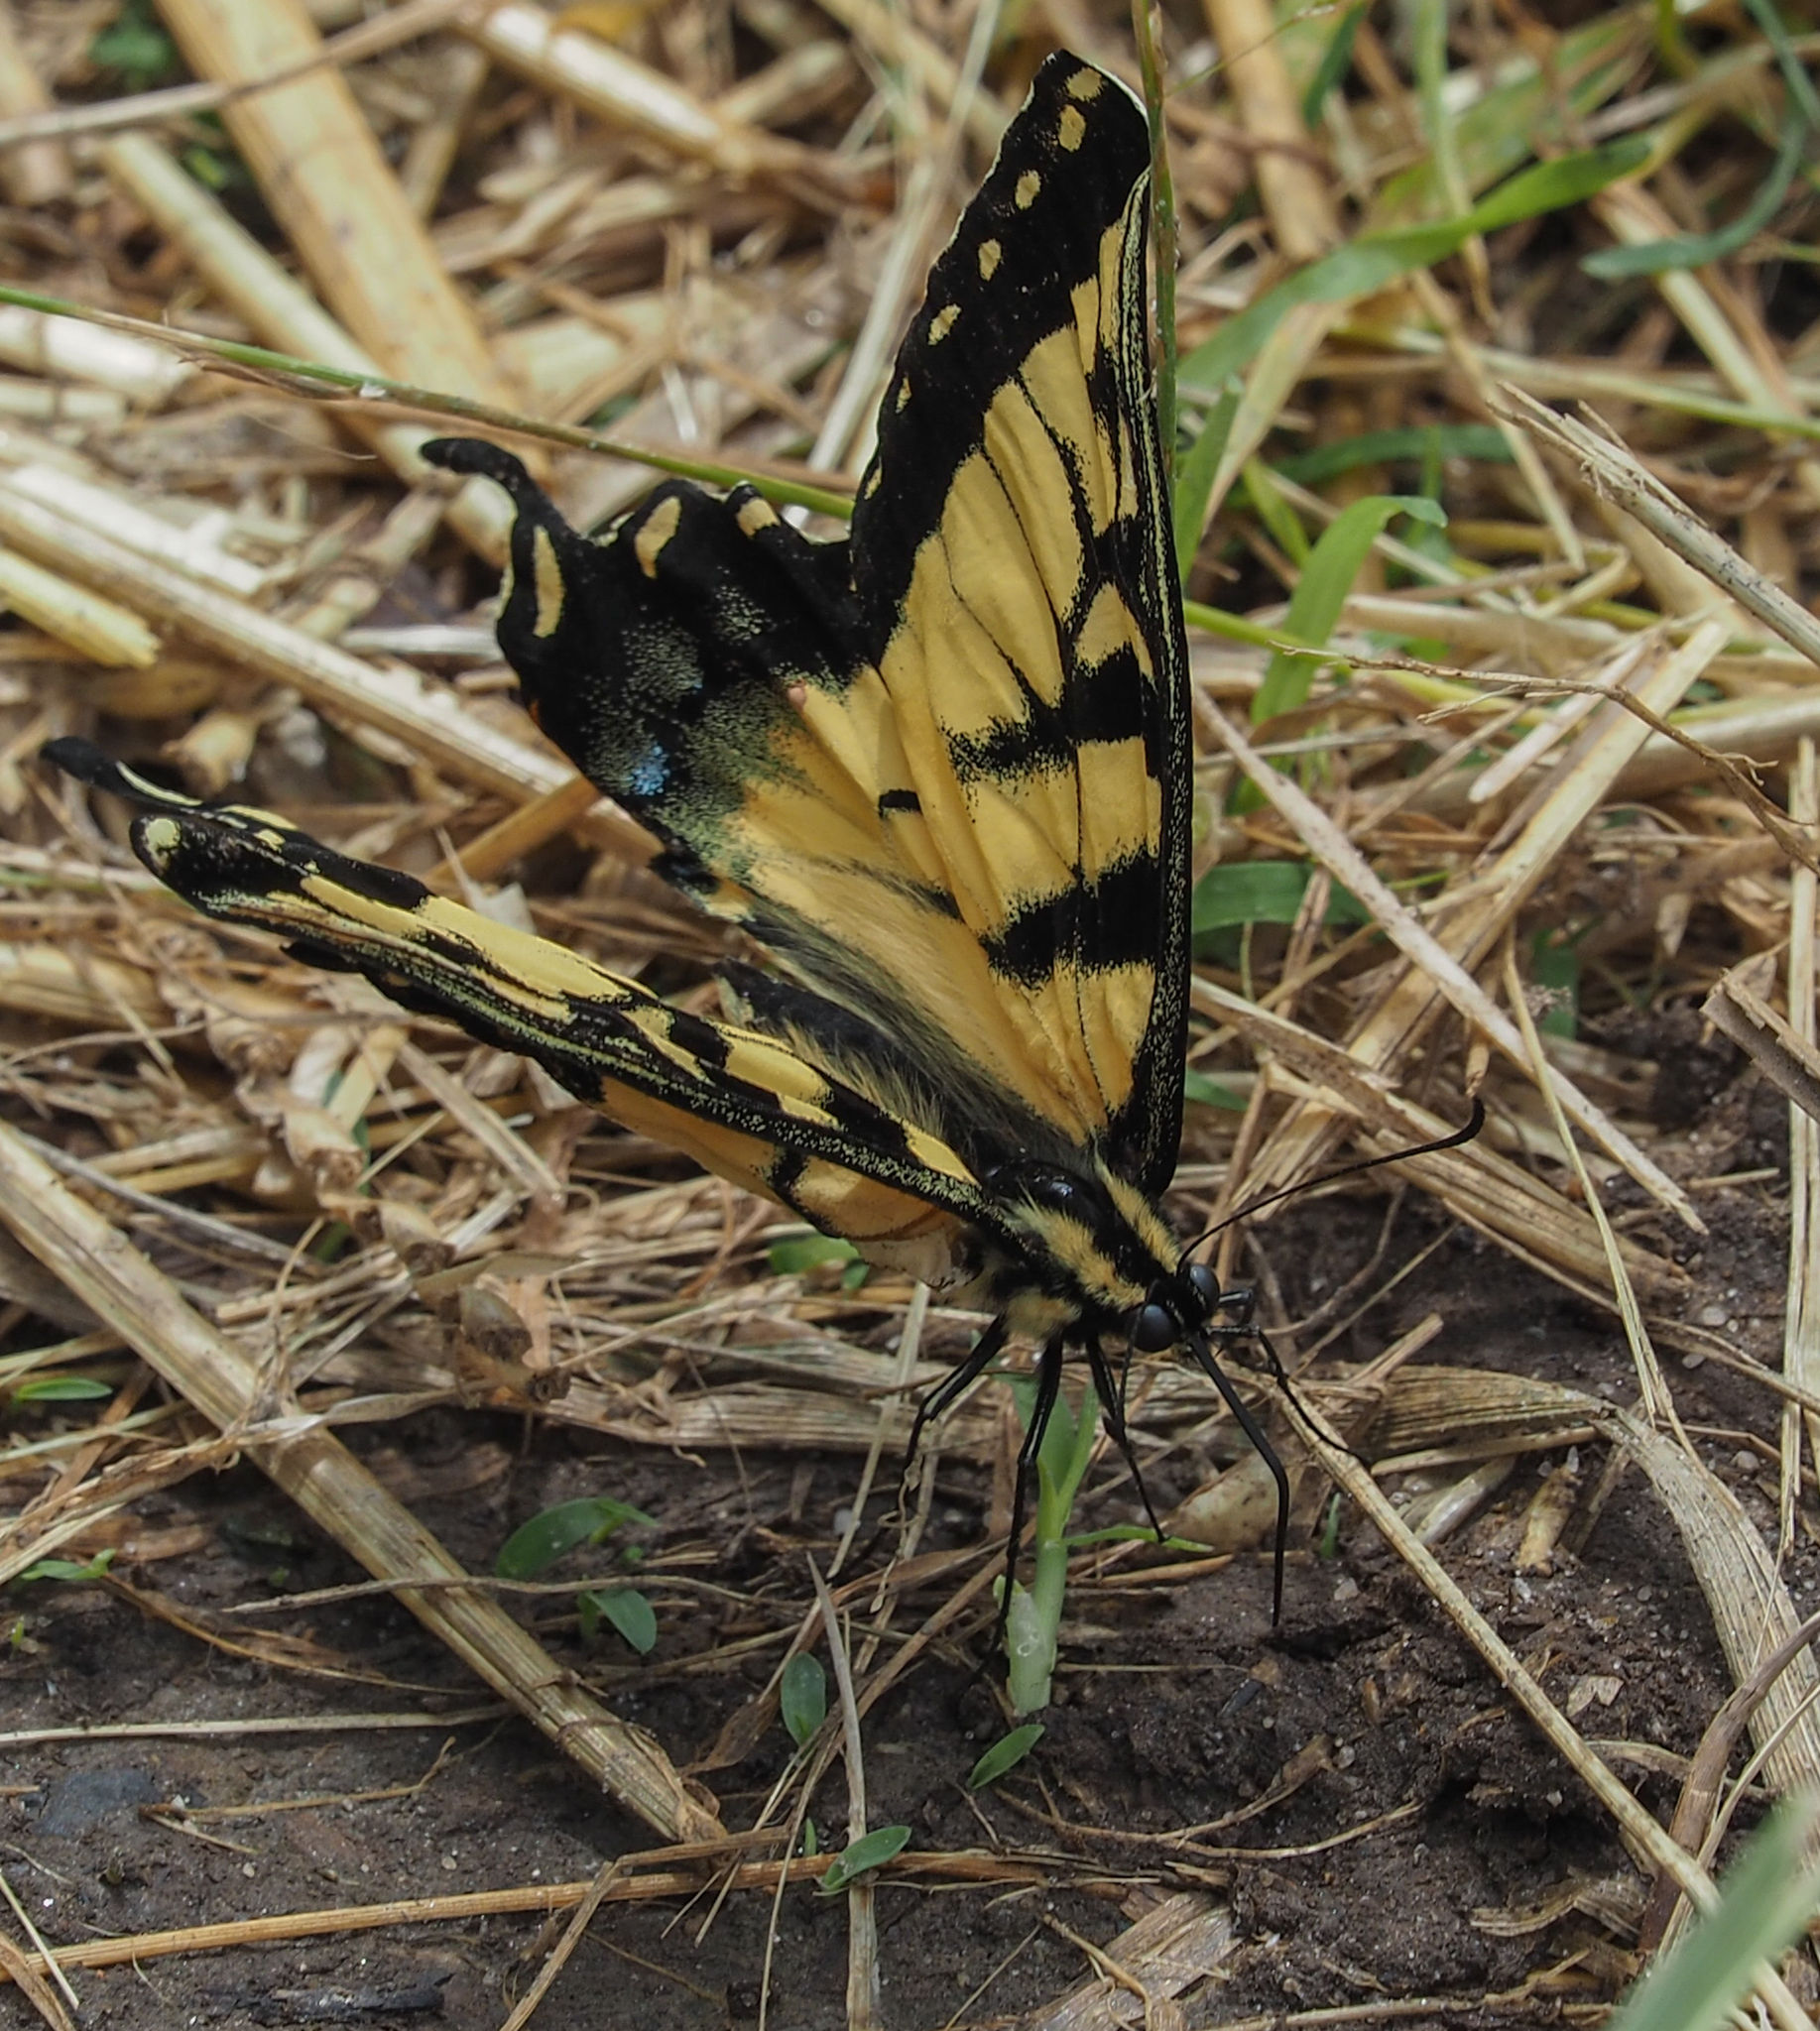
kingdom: Animalia
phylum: Arthropoda
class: Insecta
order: Lepidoptera
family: Papilionidae
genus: Papilio
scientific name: Papilio glaucus
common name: Tiger swallowtail
